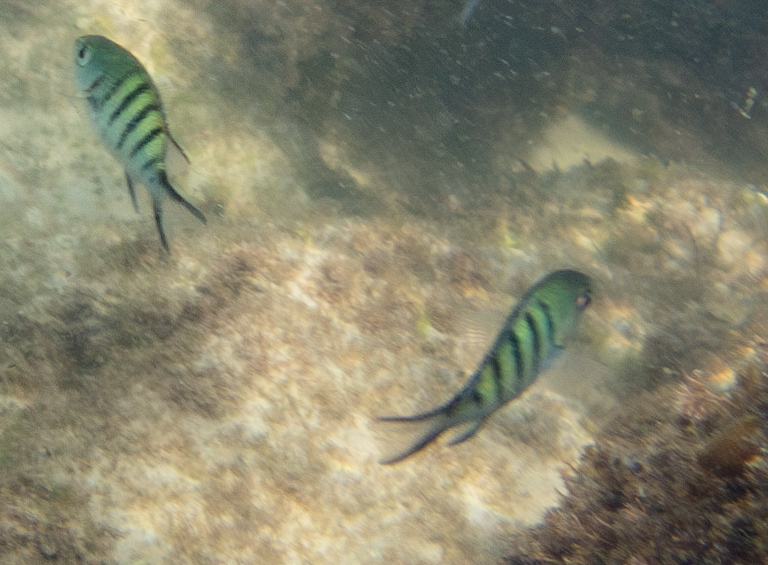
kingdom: Animalia
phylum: Chordata
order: Perciformes
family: Pomacentridae
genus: Abudefduf
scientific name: Abudefduf whitleyi
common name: Whitley's seargent
